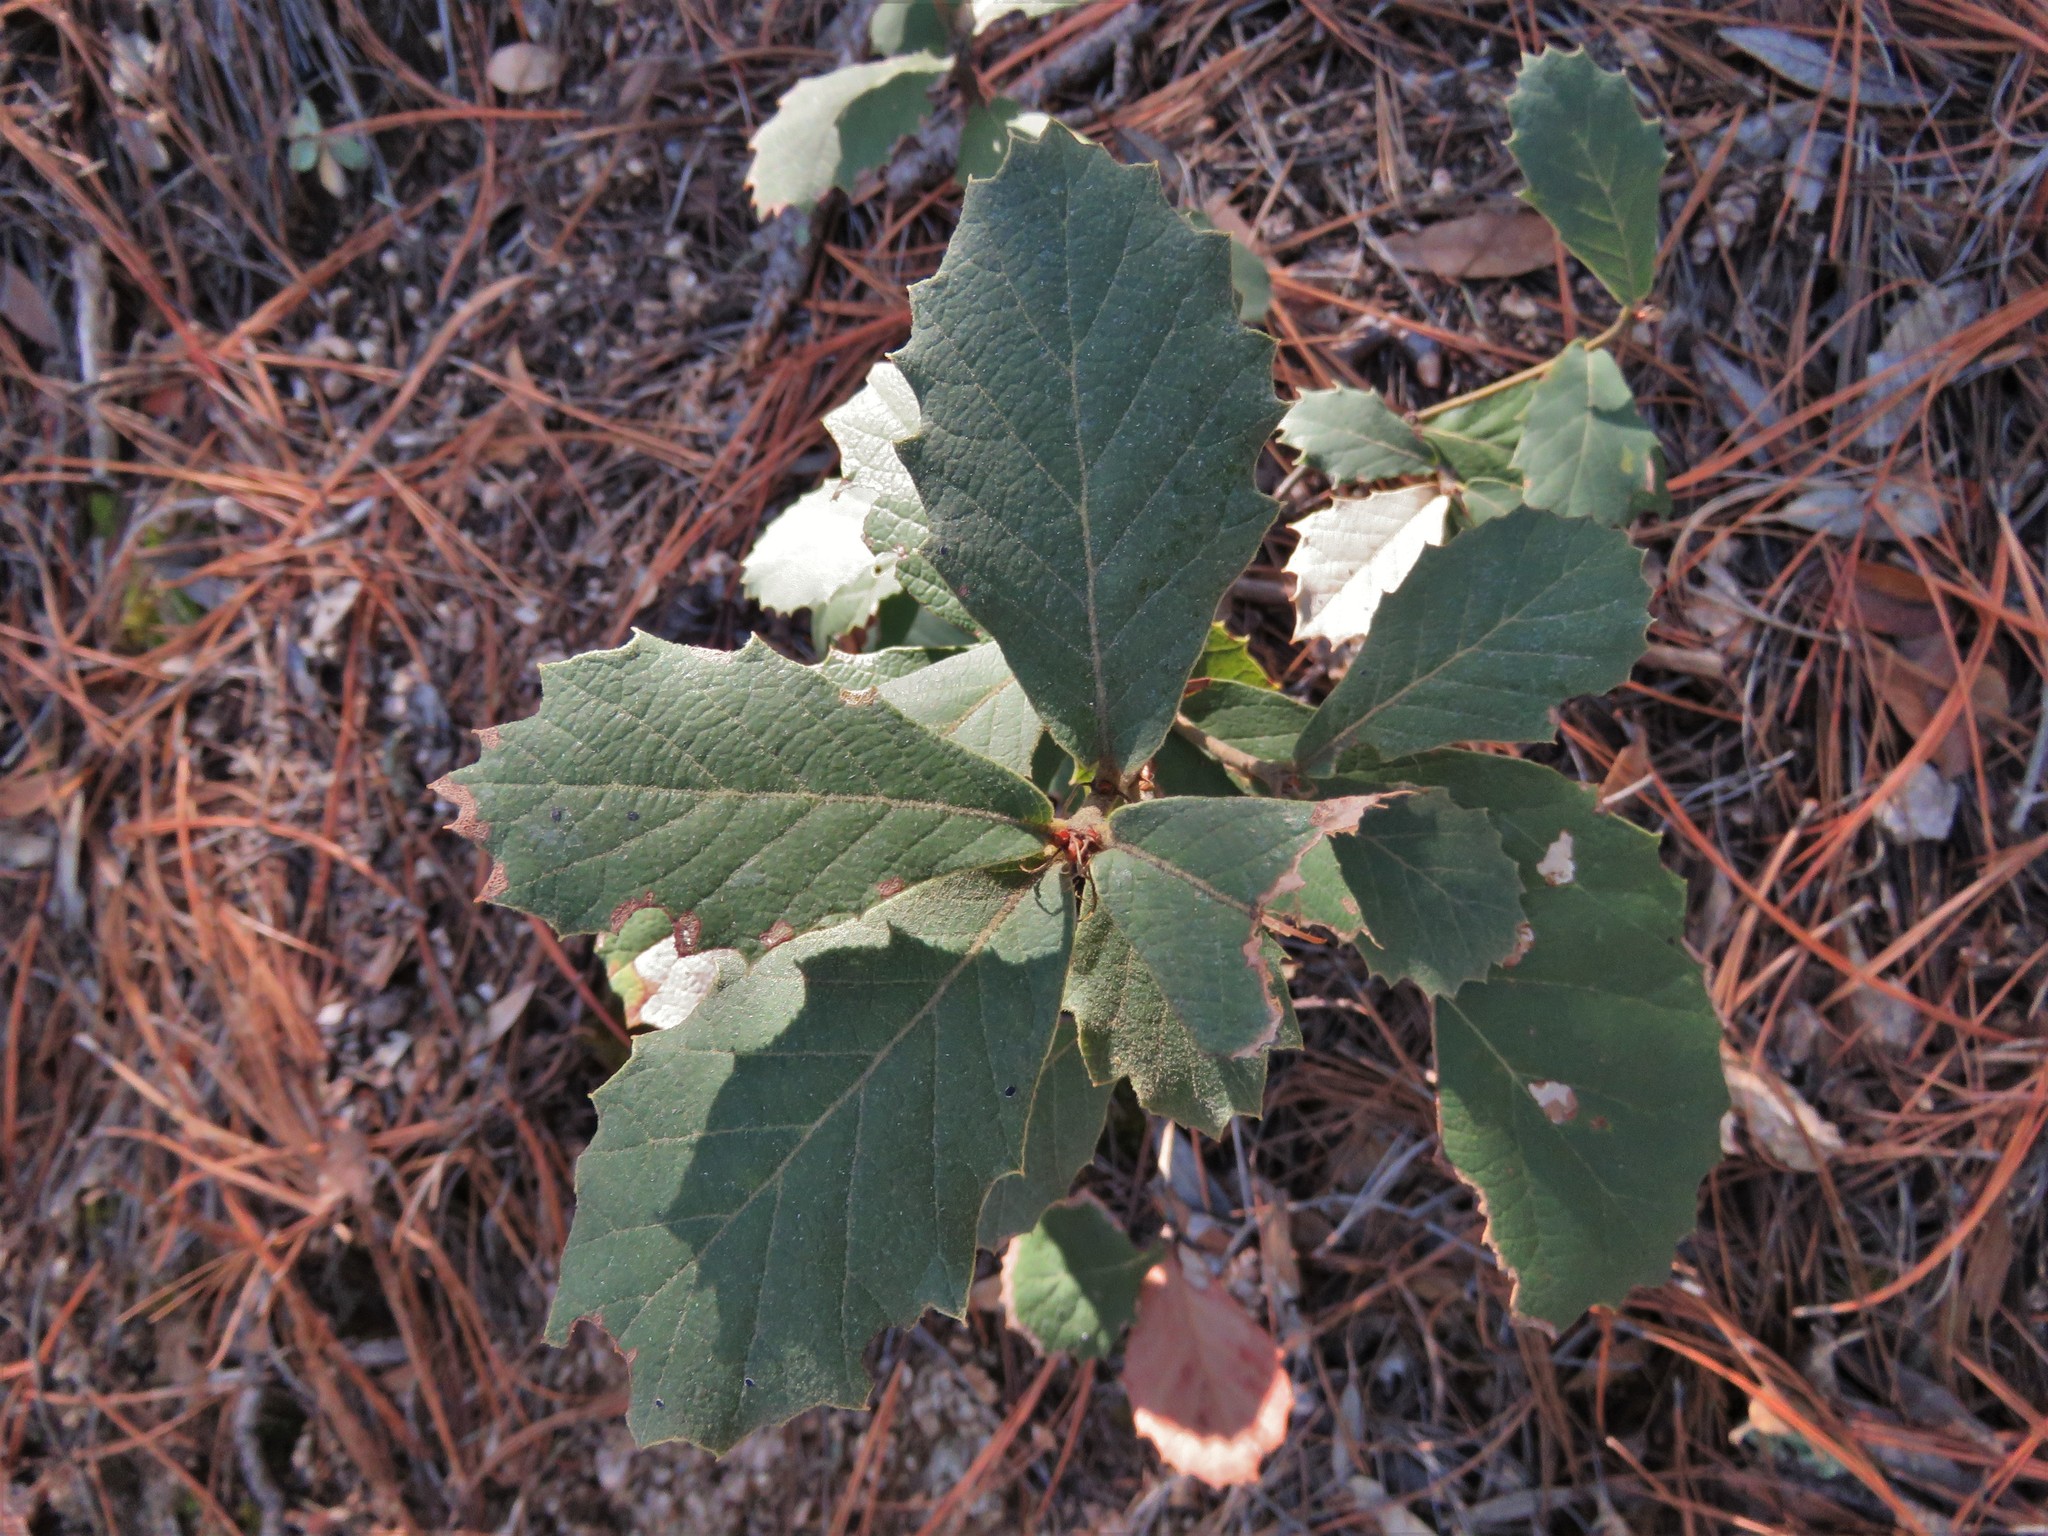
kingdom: Plantae
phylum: Tracheophyta
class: Magnoliopsida
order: Fagales
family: Fagaceae
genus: Quercus
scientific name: Quercus rugosa
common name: Netleaf oak
